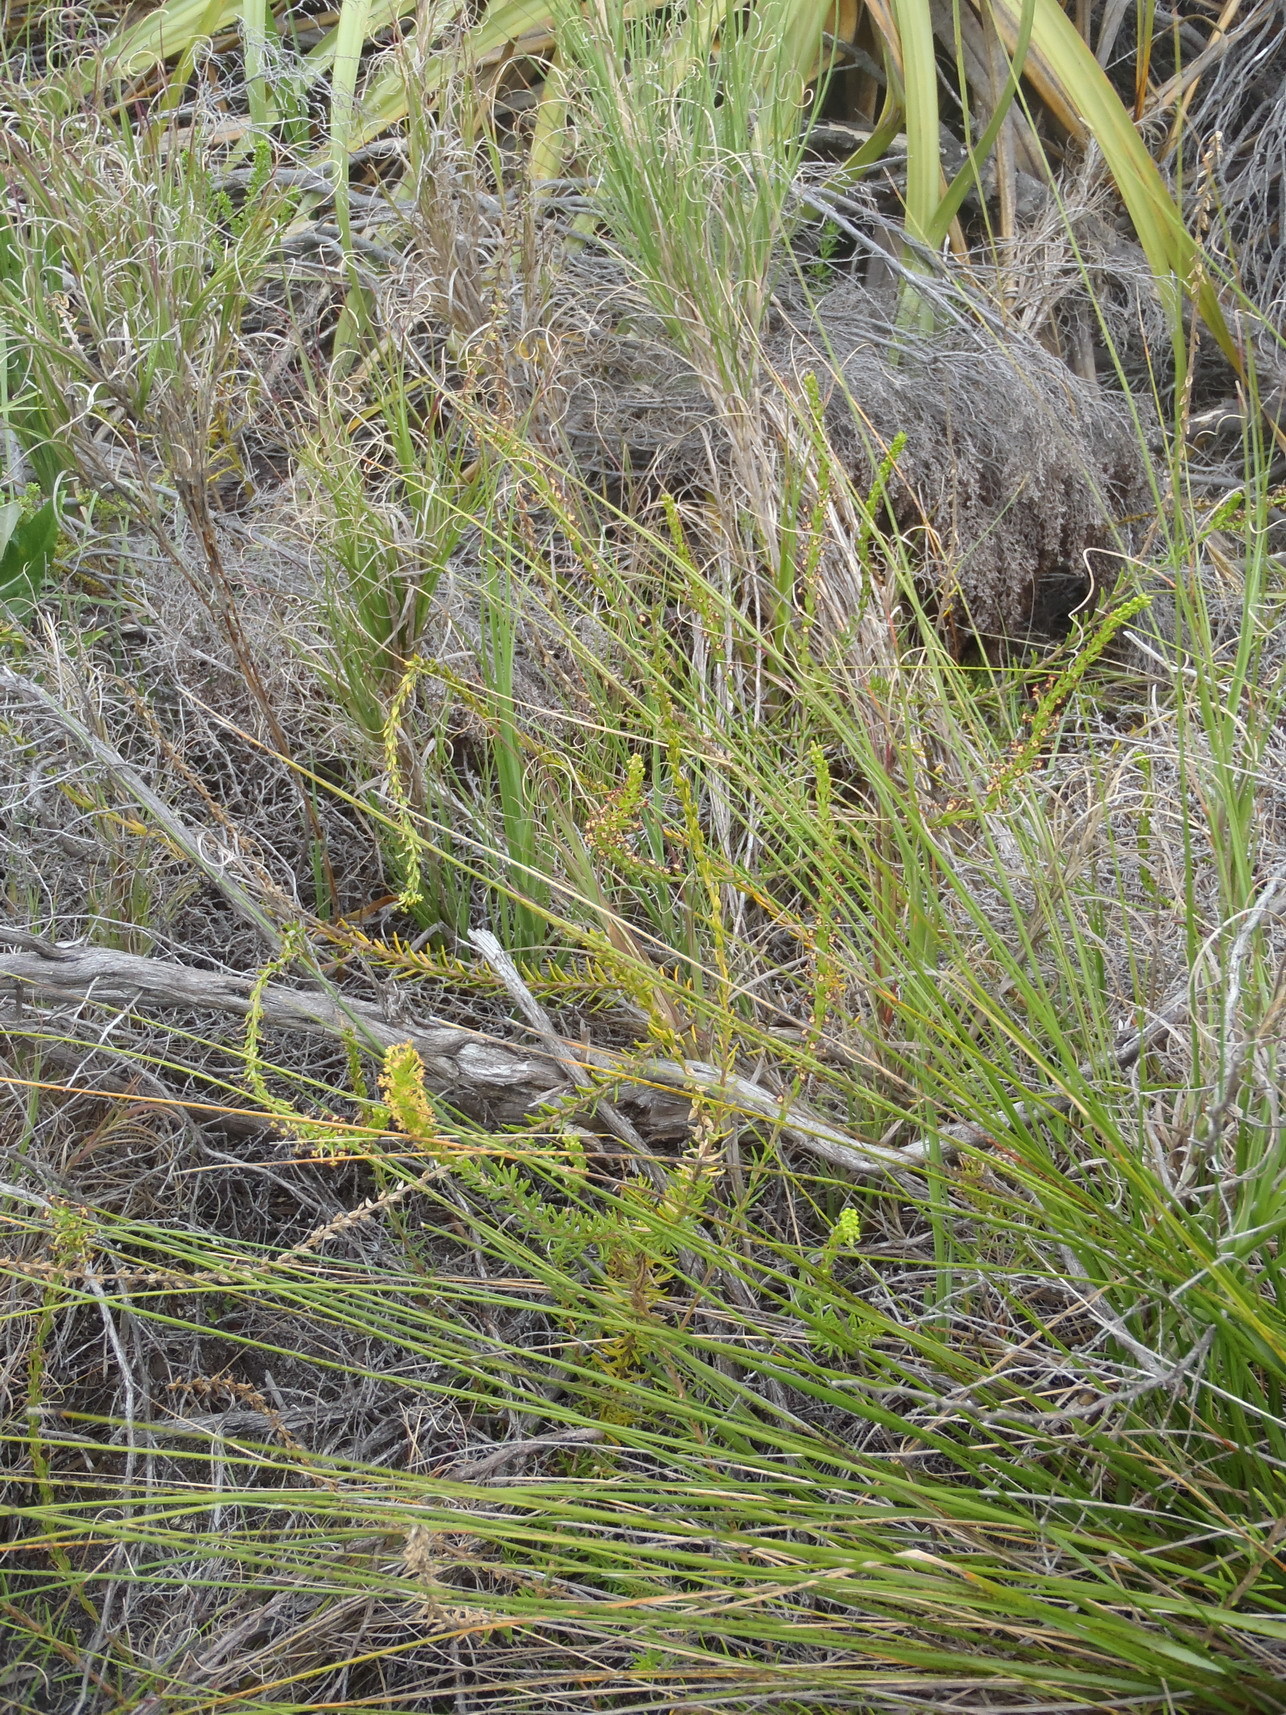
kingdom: Plantae
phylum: Tracheophyta
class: Magnoliopsida
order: Lamiales
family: Scrophulariaceae
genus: Microdon
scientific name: Microdon dubius
